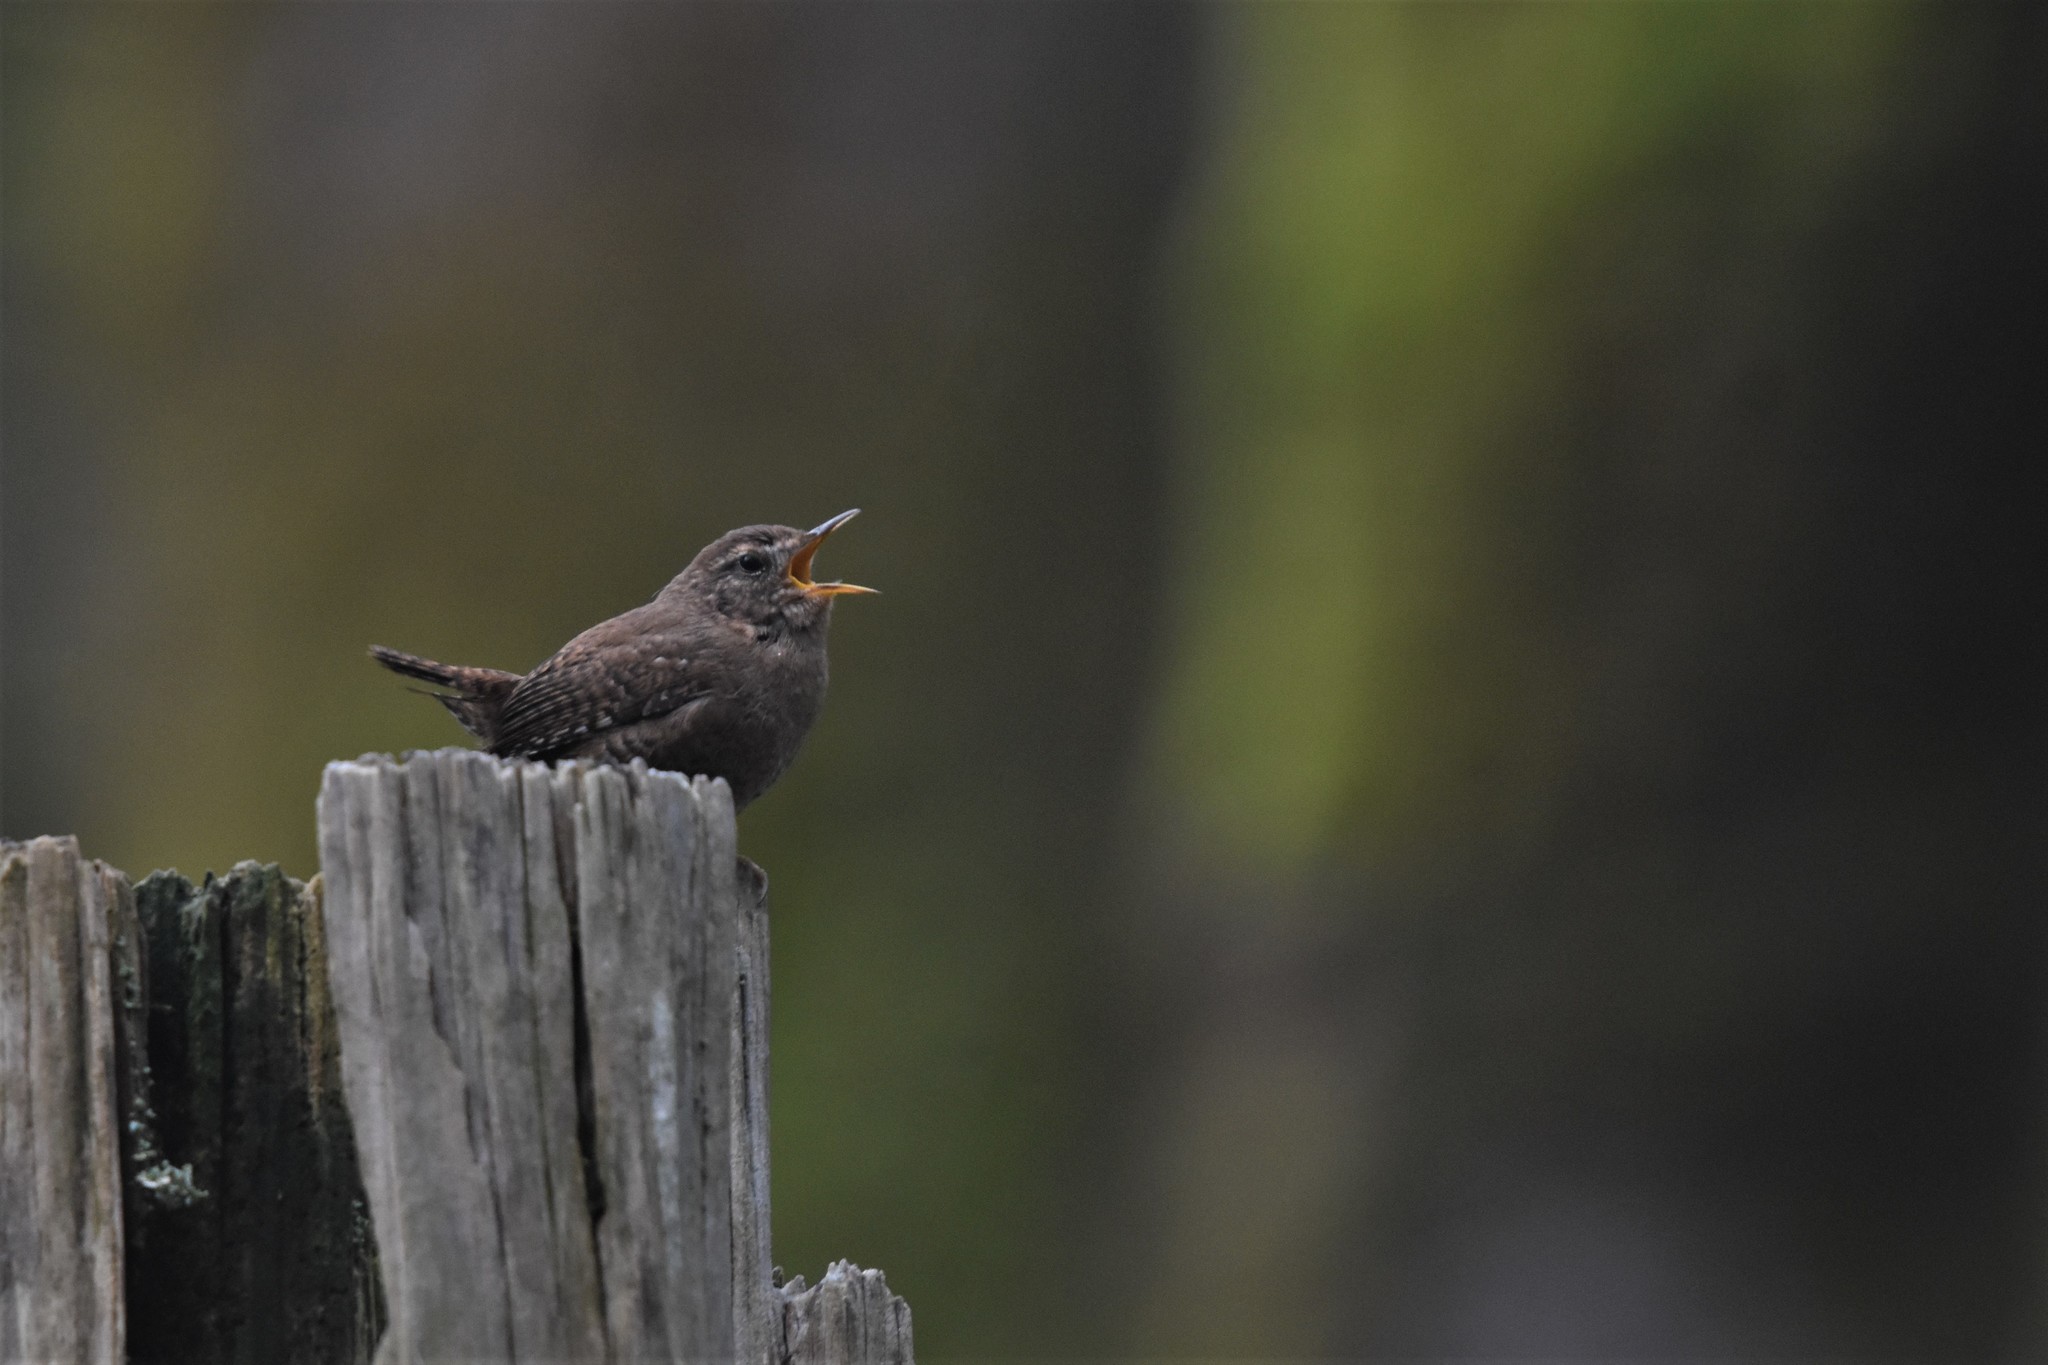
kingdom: Animalia
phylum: Chordata
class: Aves
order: Passeriformes
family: Troglodytidae
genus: Troglodytes
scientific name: Troglodytes pacificus
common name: Pacific wren
